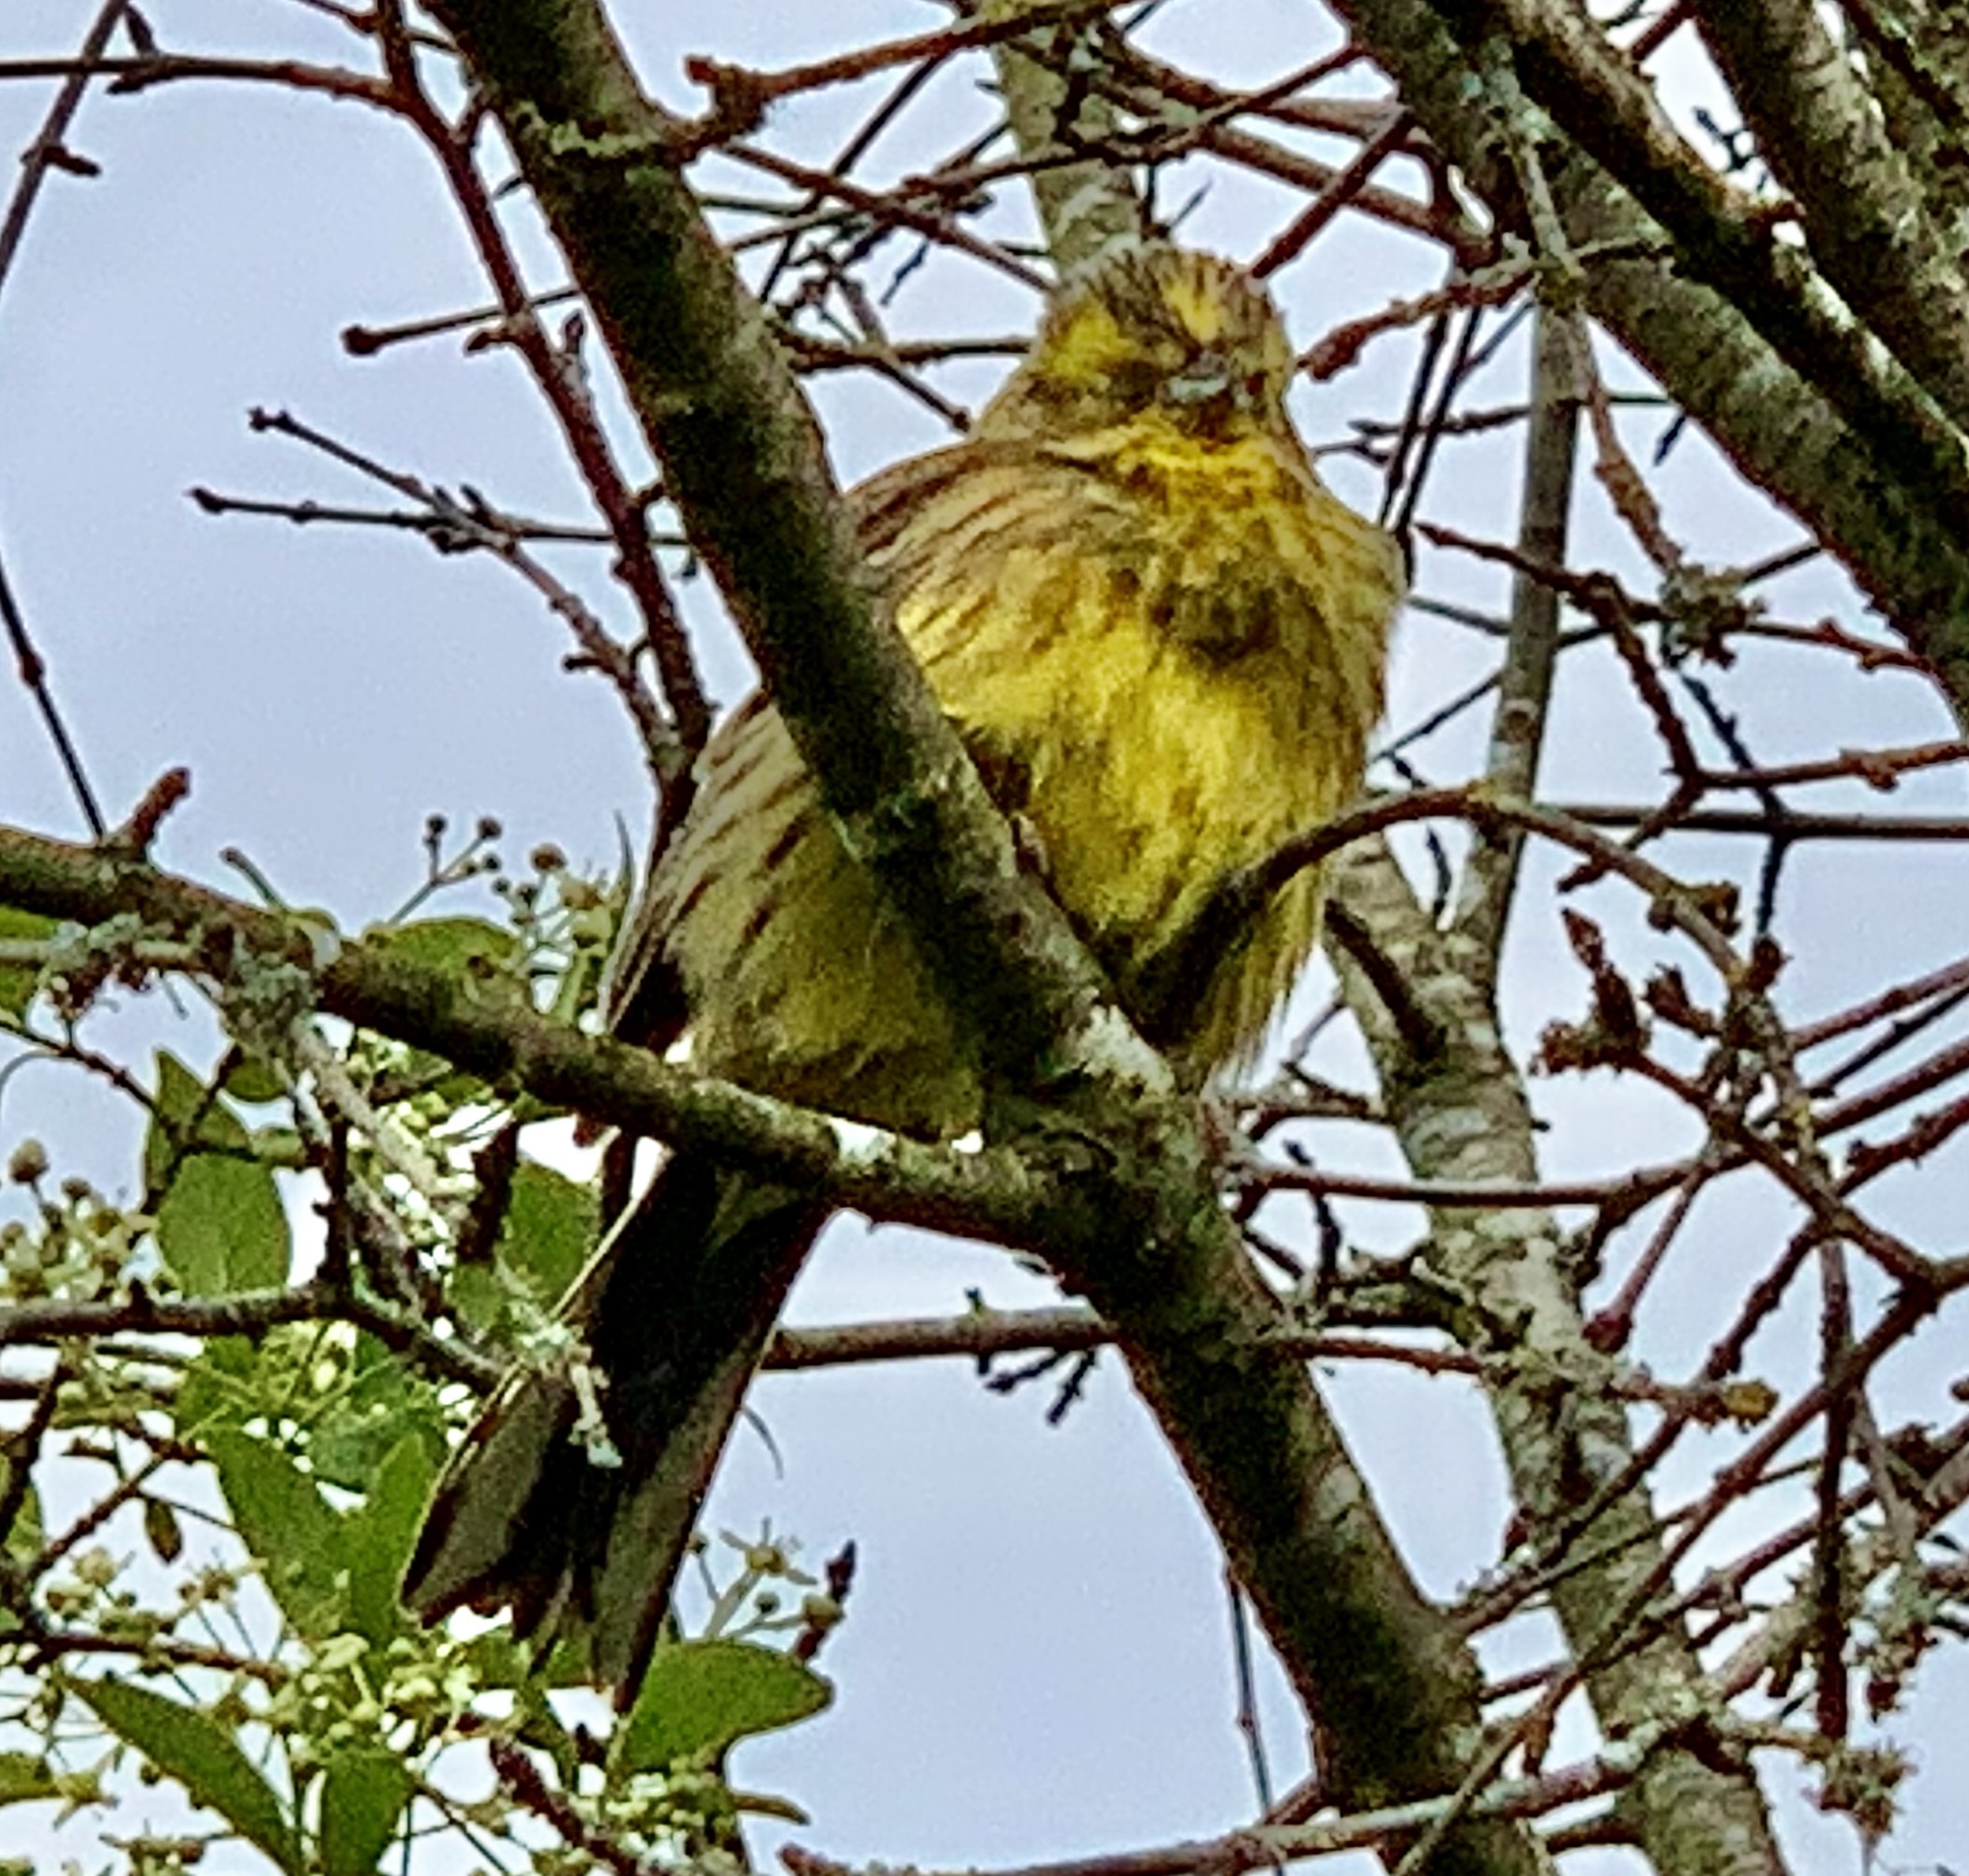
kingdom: Animalia
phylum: Chordata
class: Aves
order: Passeriformes
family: Emberizidae
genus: Emberiza
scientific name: Emberiza citrinella
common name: Yellowhammer
